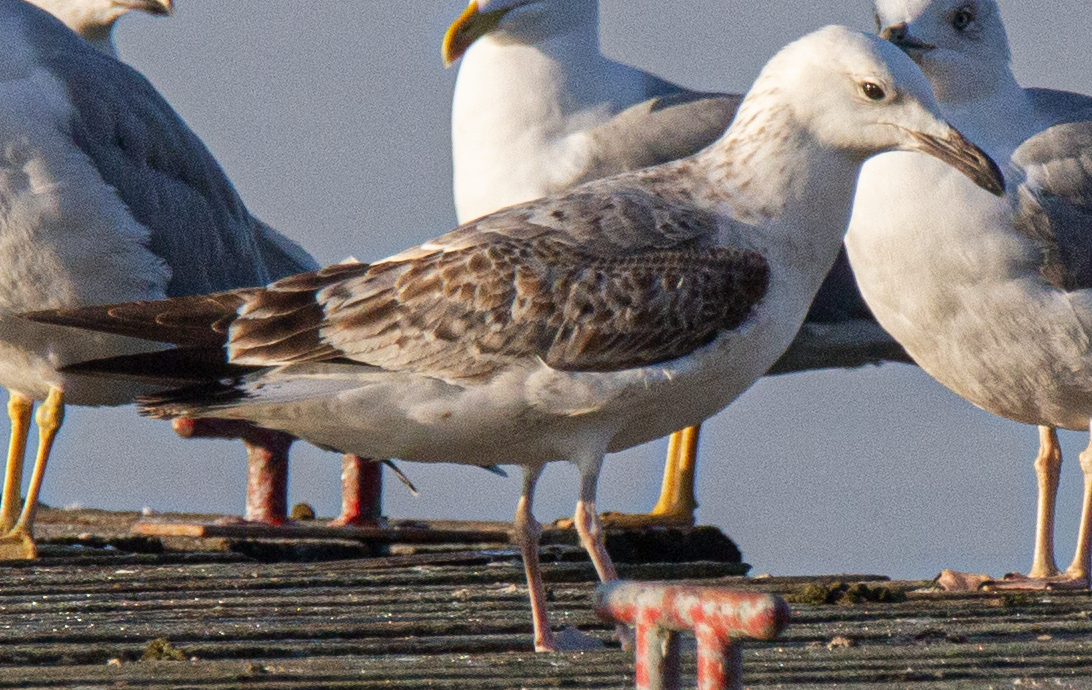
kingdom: Animalia
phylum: Chordata
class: Aves
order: Charadriiformes
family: Laridae
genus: Larus
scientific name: Larus cachinnans
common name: Caspian gull
